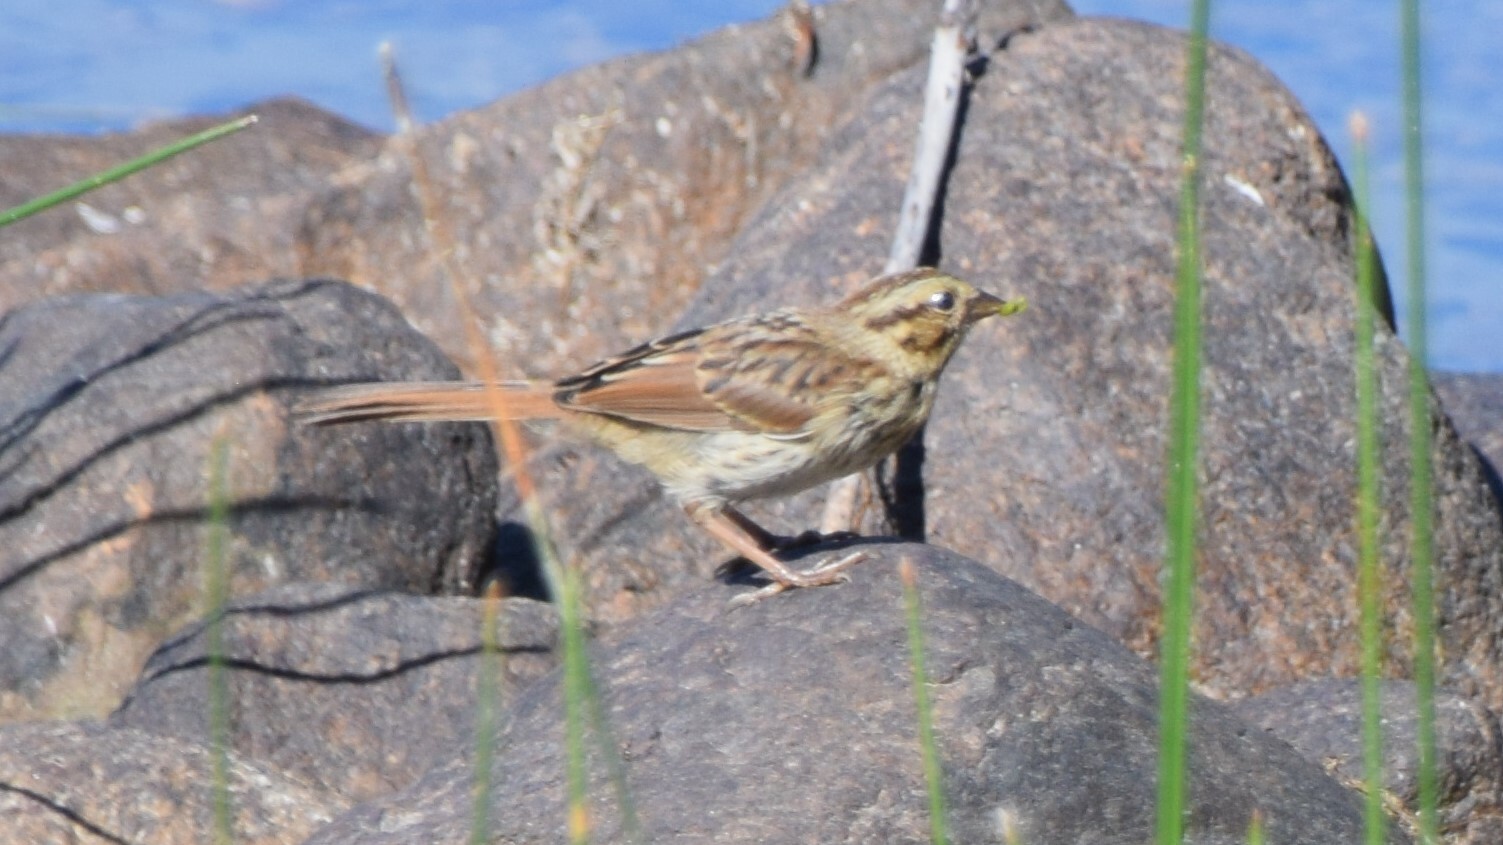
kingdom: Animalia
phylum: Chordata
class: Aves
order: Passeriformes
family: Passerellidae
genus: Melospiza
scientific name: Melospiza melodia
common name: Song sparrow
